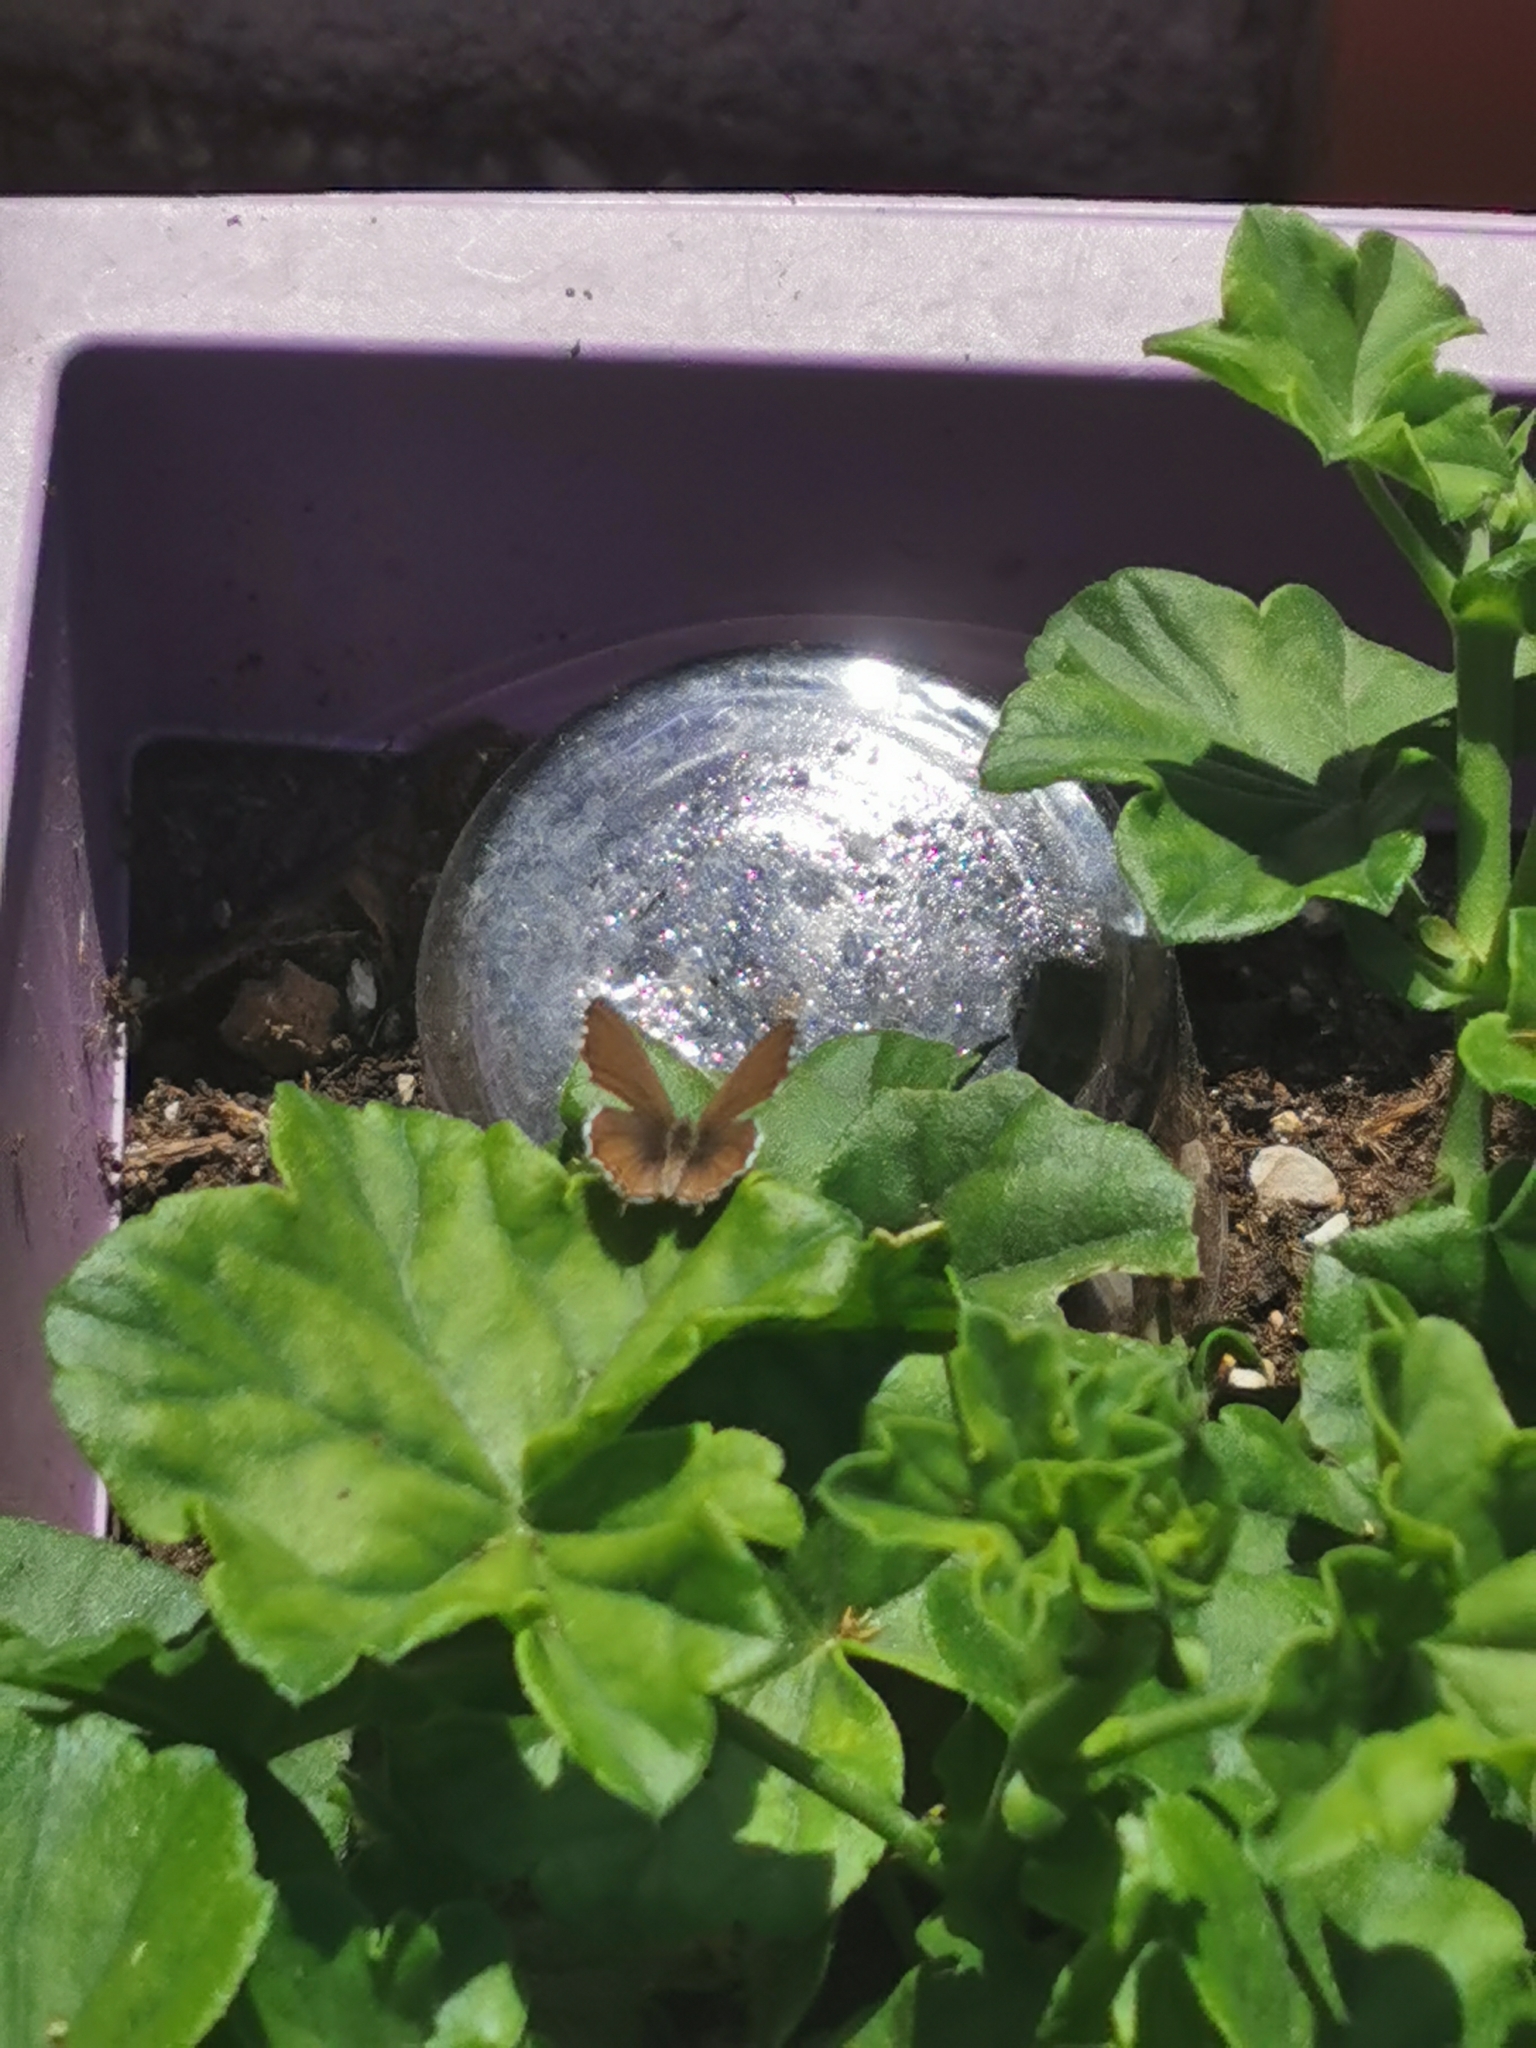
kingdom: Animalia
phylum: Arthropoda
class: Insecta
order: Lepidoptera
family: Lycaenidae
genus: Cacyreus
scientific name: Cacyreus marshalli
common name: Geranium bronze
